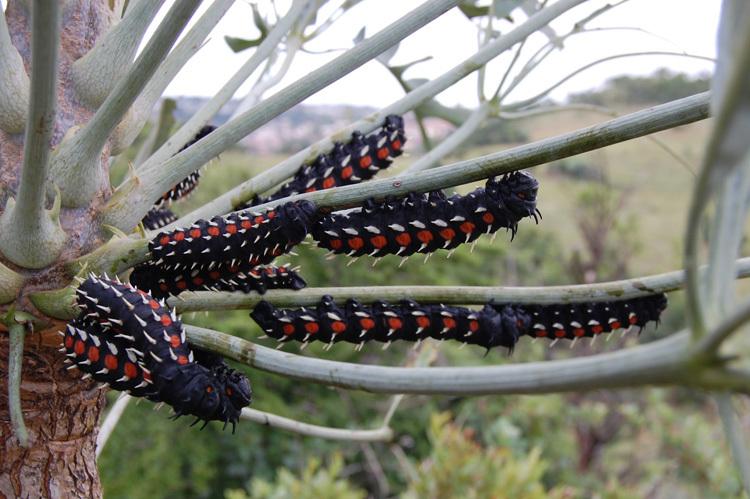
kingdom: Animalia
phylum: Arthropoda
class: Insecta
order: Lepidoptera
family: Saturniidae
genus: Bunaea
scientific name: Bunaea alcinoe
